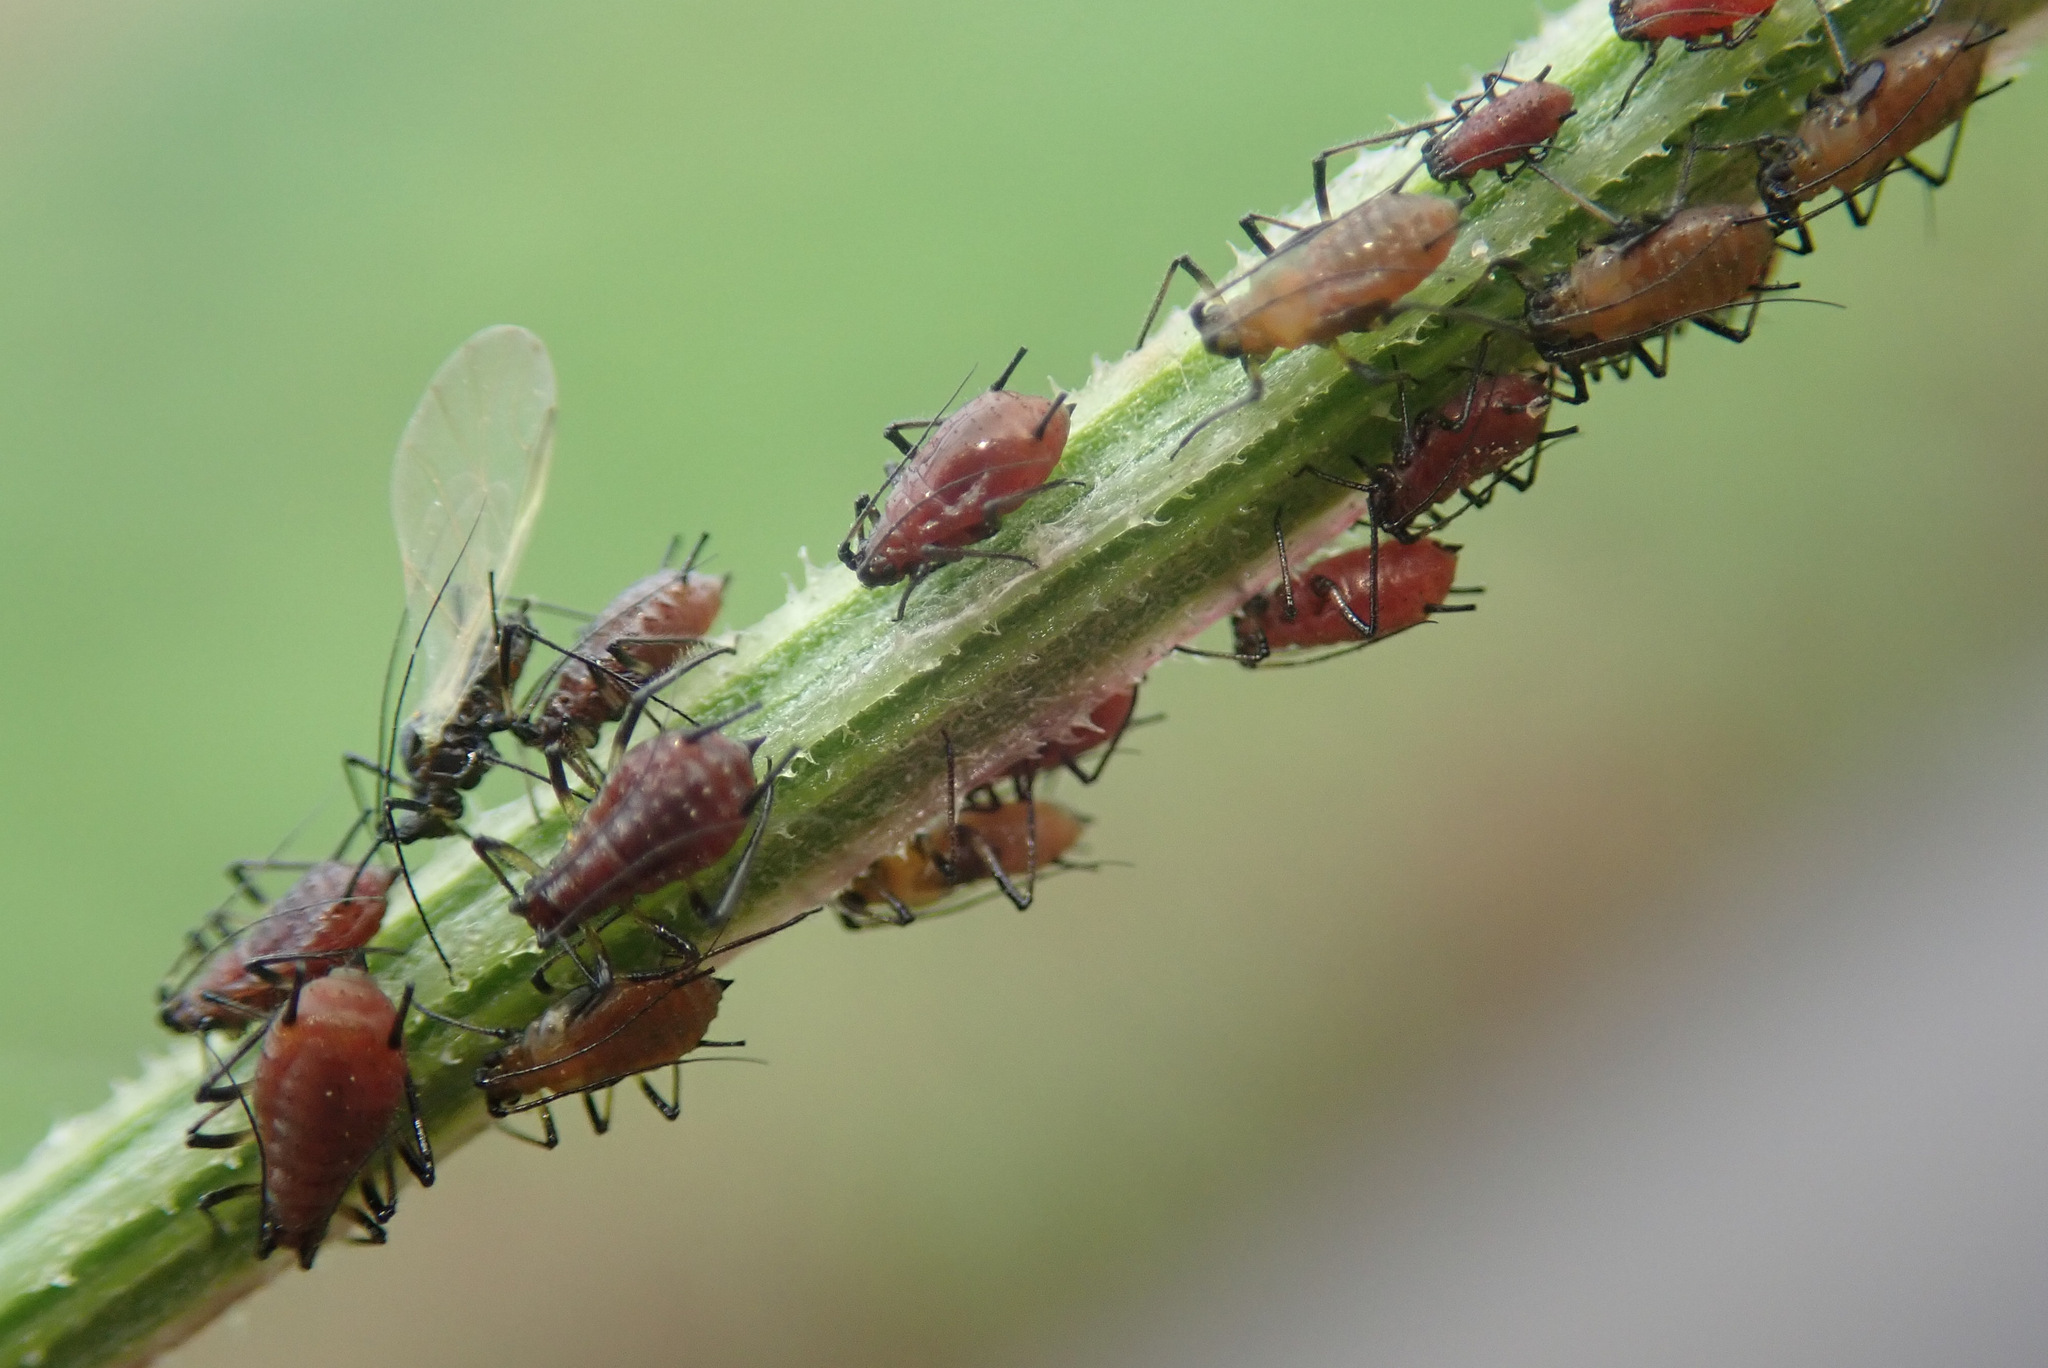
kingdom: Animalia
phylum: Arthropoda
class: Insecta
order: Hemiptera
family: Aphididae
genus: Uroleucon
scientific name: Uroleucon jaceae
